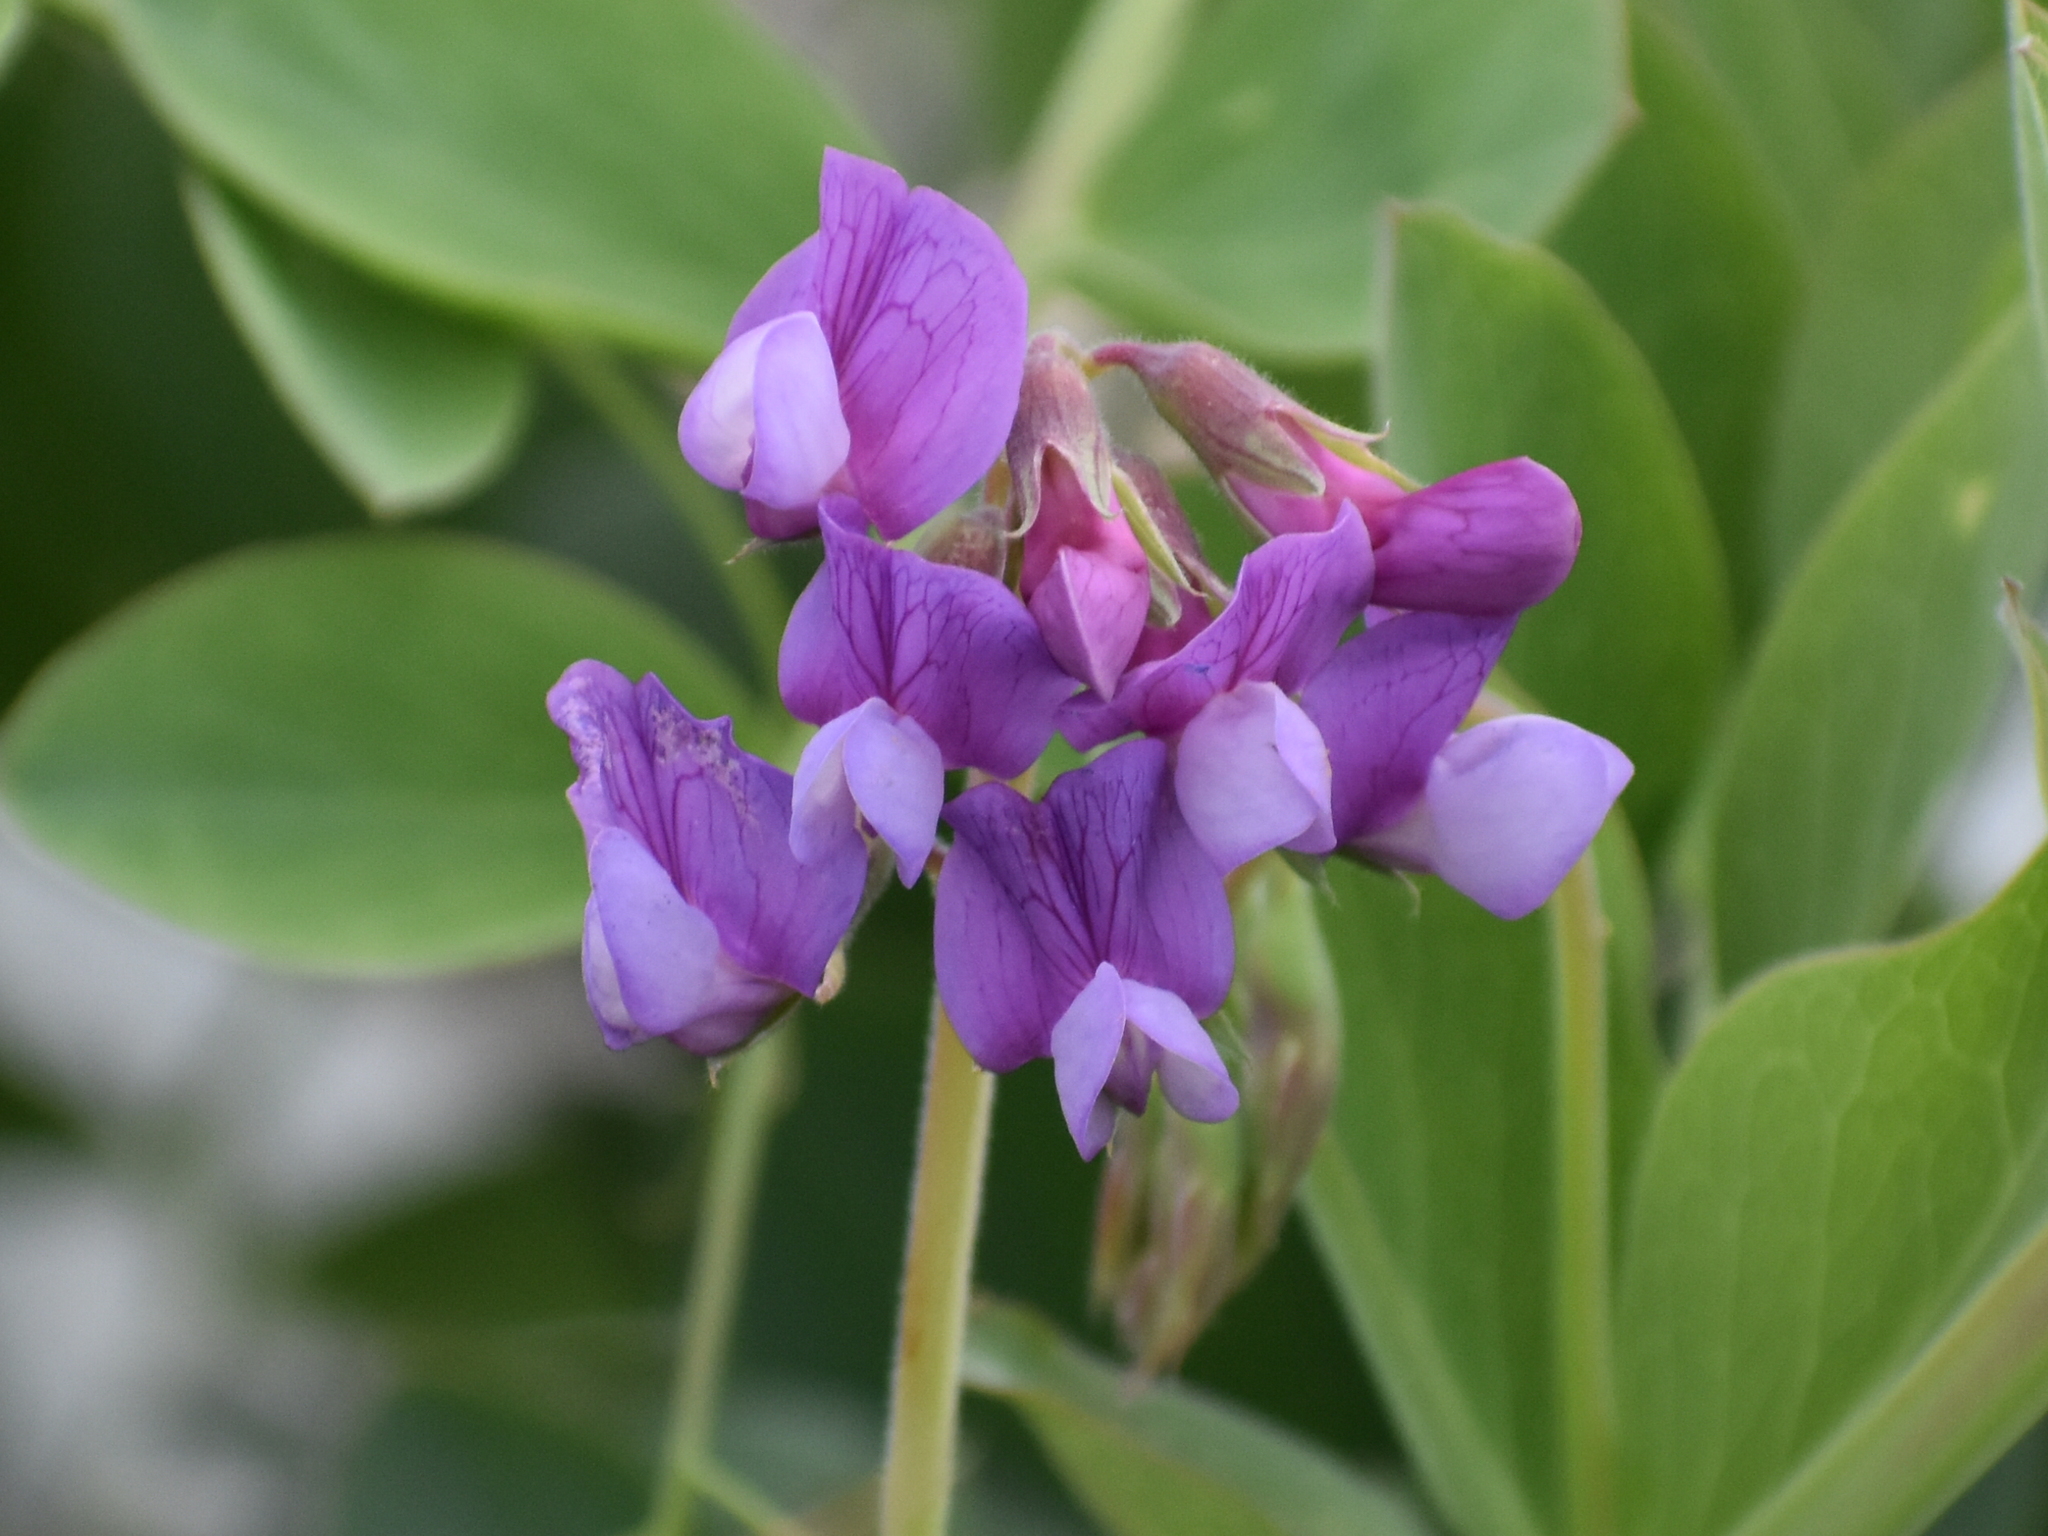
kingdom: Plantae
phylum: Tracheophyta
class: Magnoliopsida
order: Fabales
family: Fabaceae
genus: Lathyrus
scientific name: Lathyrus japonicus
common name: Sea pea
